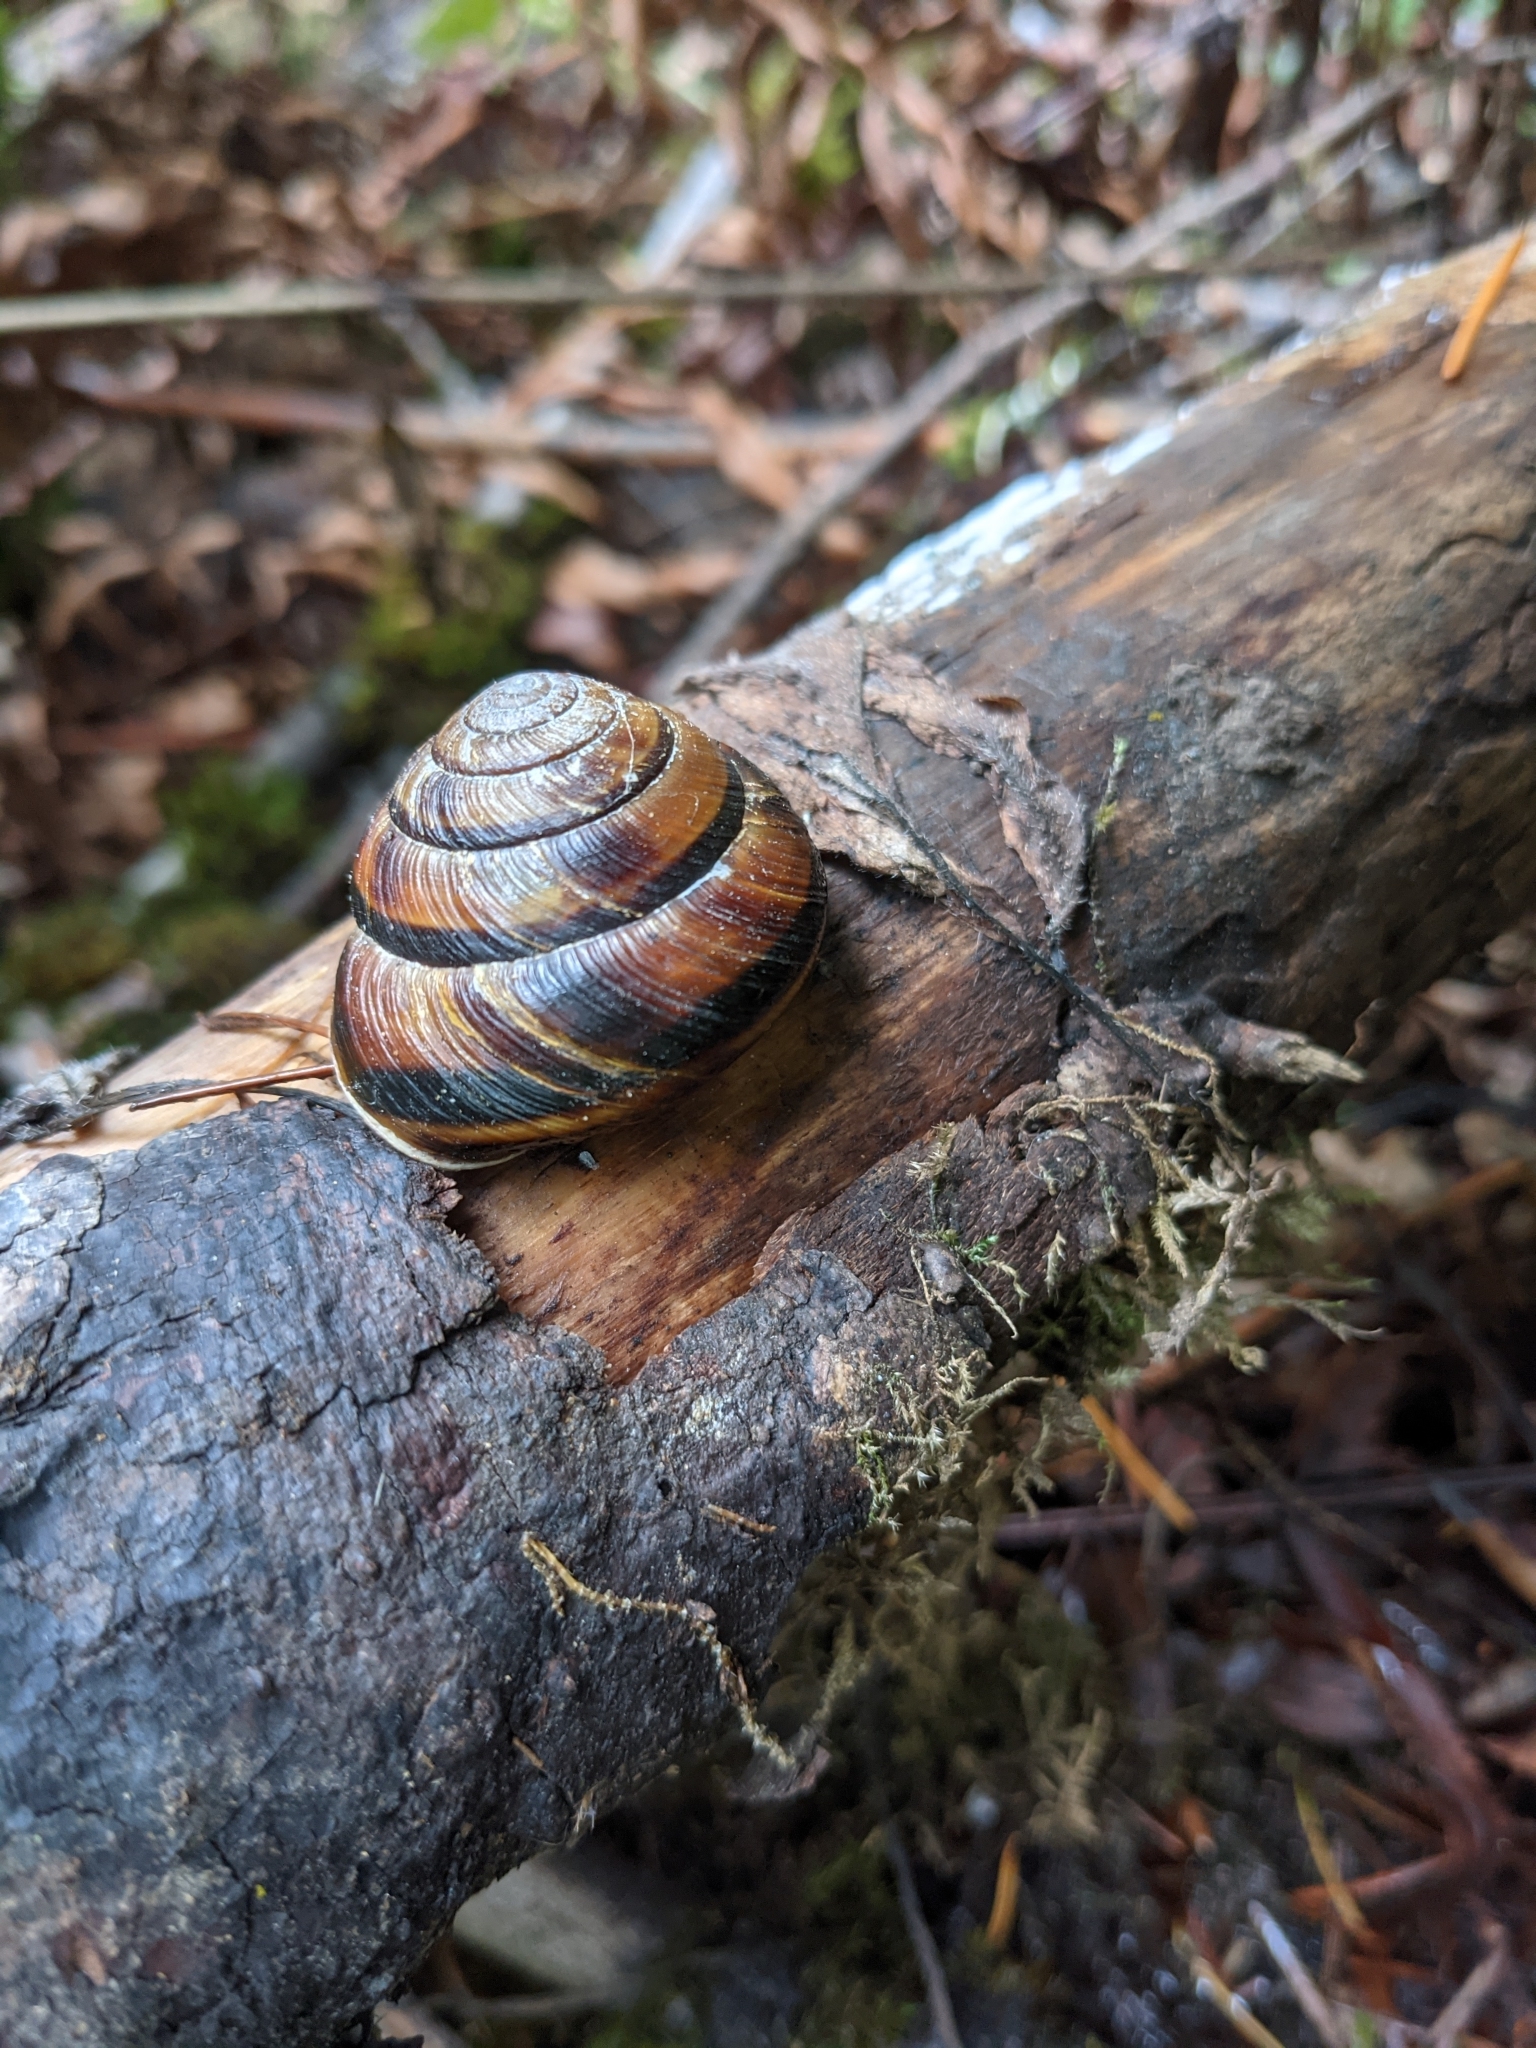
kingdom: Animalia
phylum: Mollusca
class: Gastropoda
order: Stylommatophora
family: Xanthonychidae
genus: Monadenia
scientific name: Monadenia fidelis
